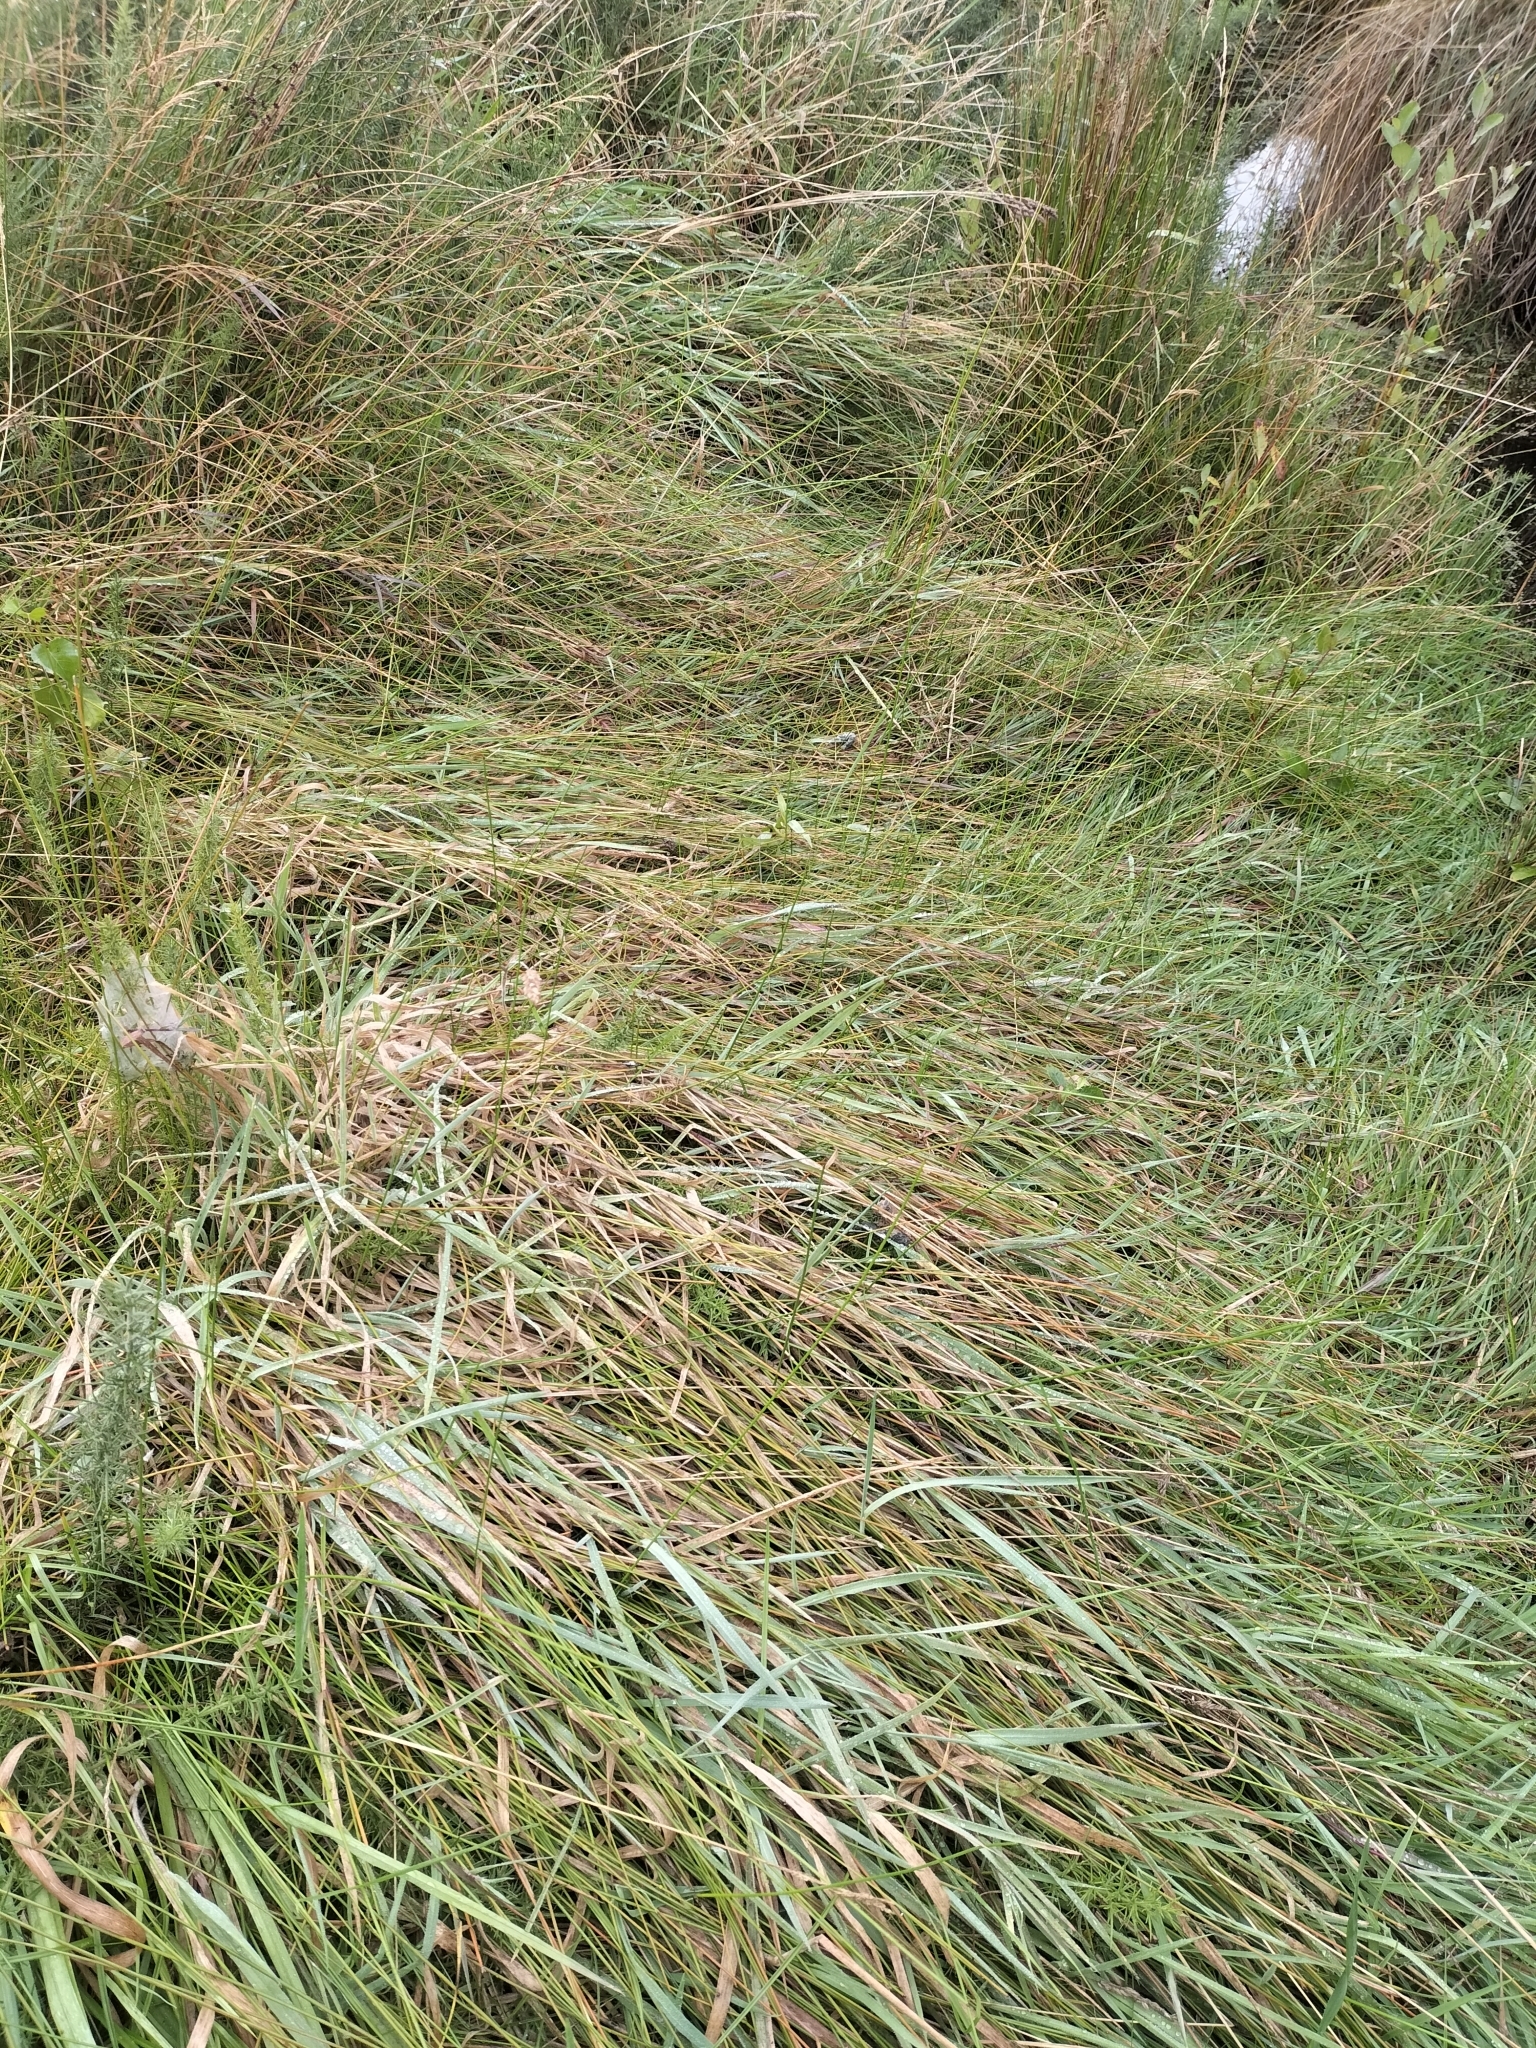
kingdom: Plantae
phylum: Tracheophyta
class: Liliopsida
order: Poales
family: Cyperaceae
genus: Eleocharis
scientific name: Eleocharis acuta
